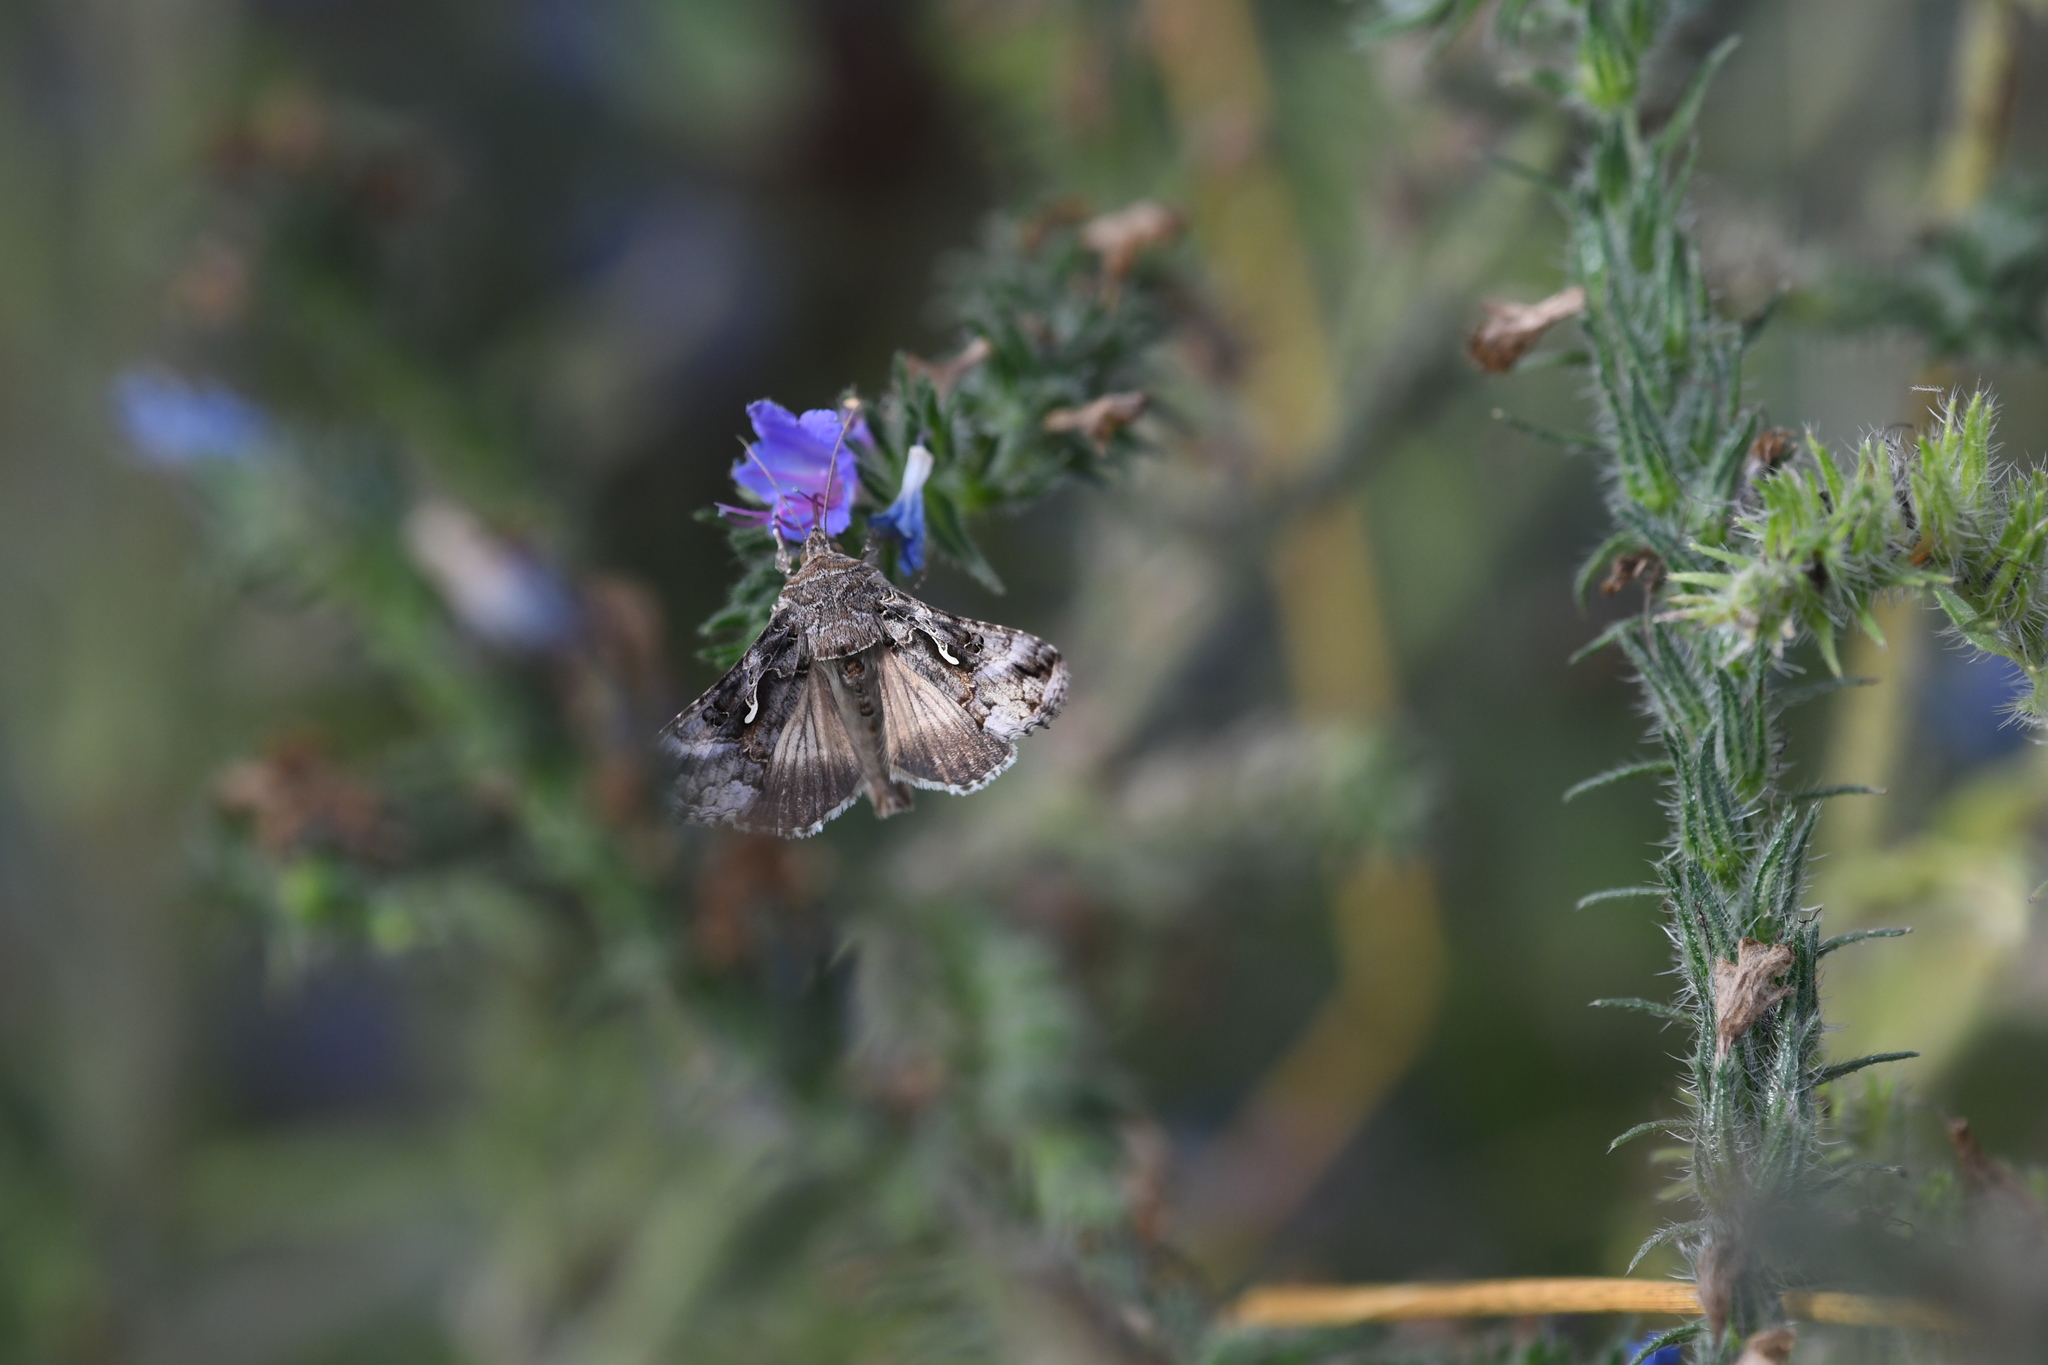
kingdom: Animalia
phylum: Arthropoda
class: Insecta
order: Lepidoptera
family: Noctuidae
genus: Autographa
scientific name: Autographa gamma
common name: Silver y
